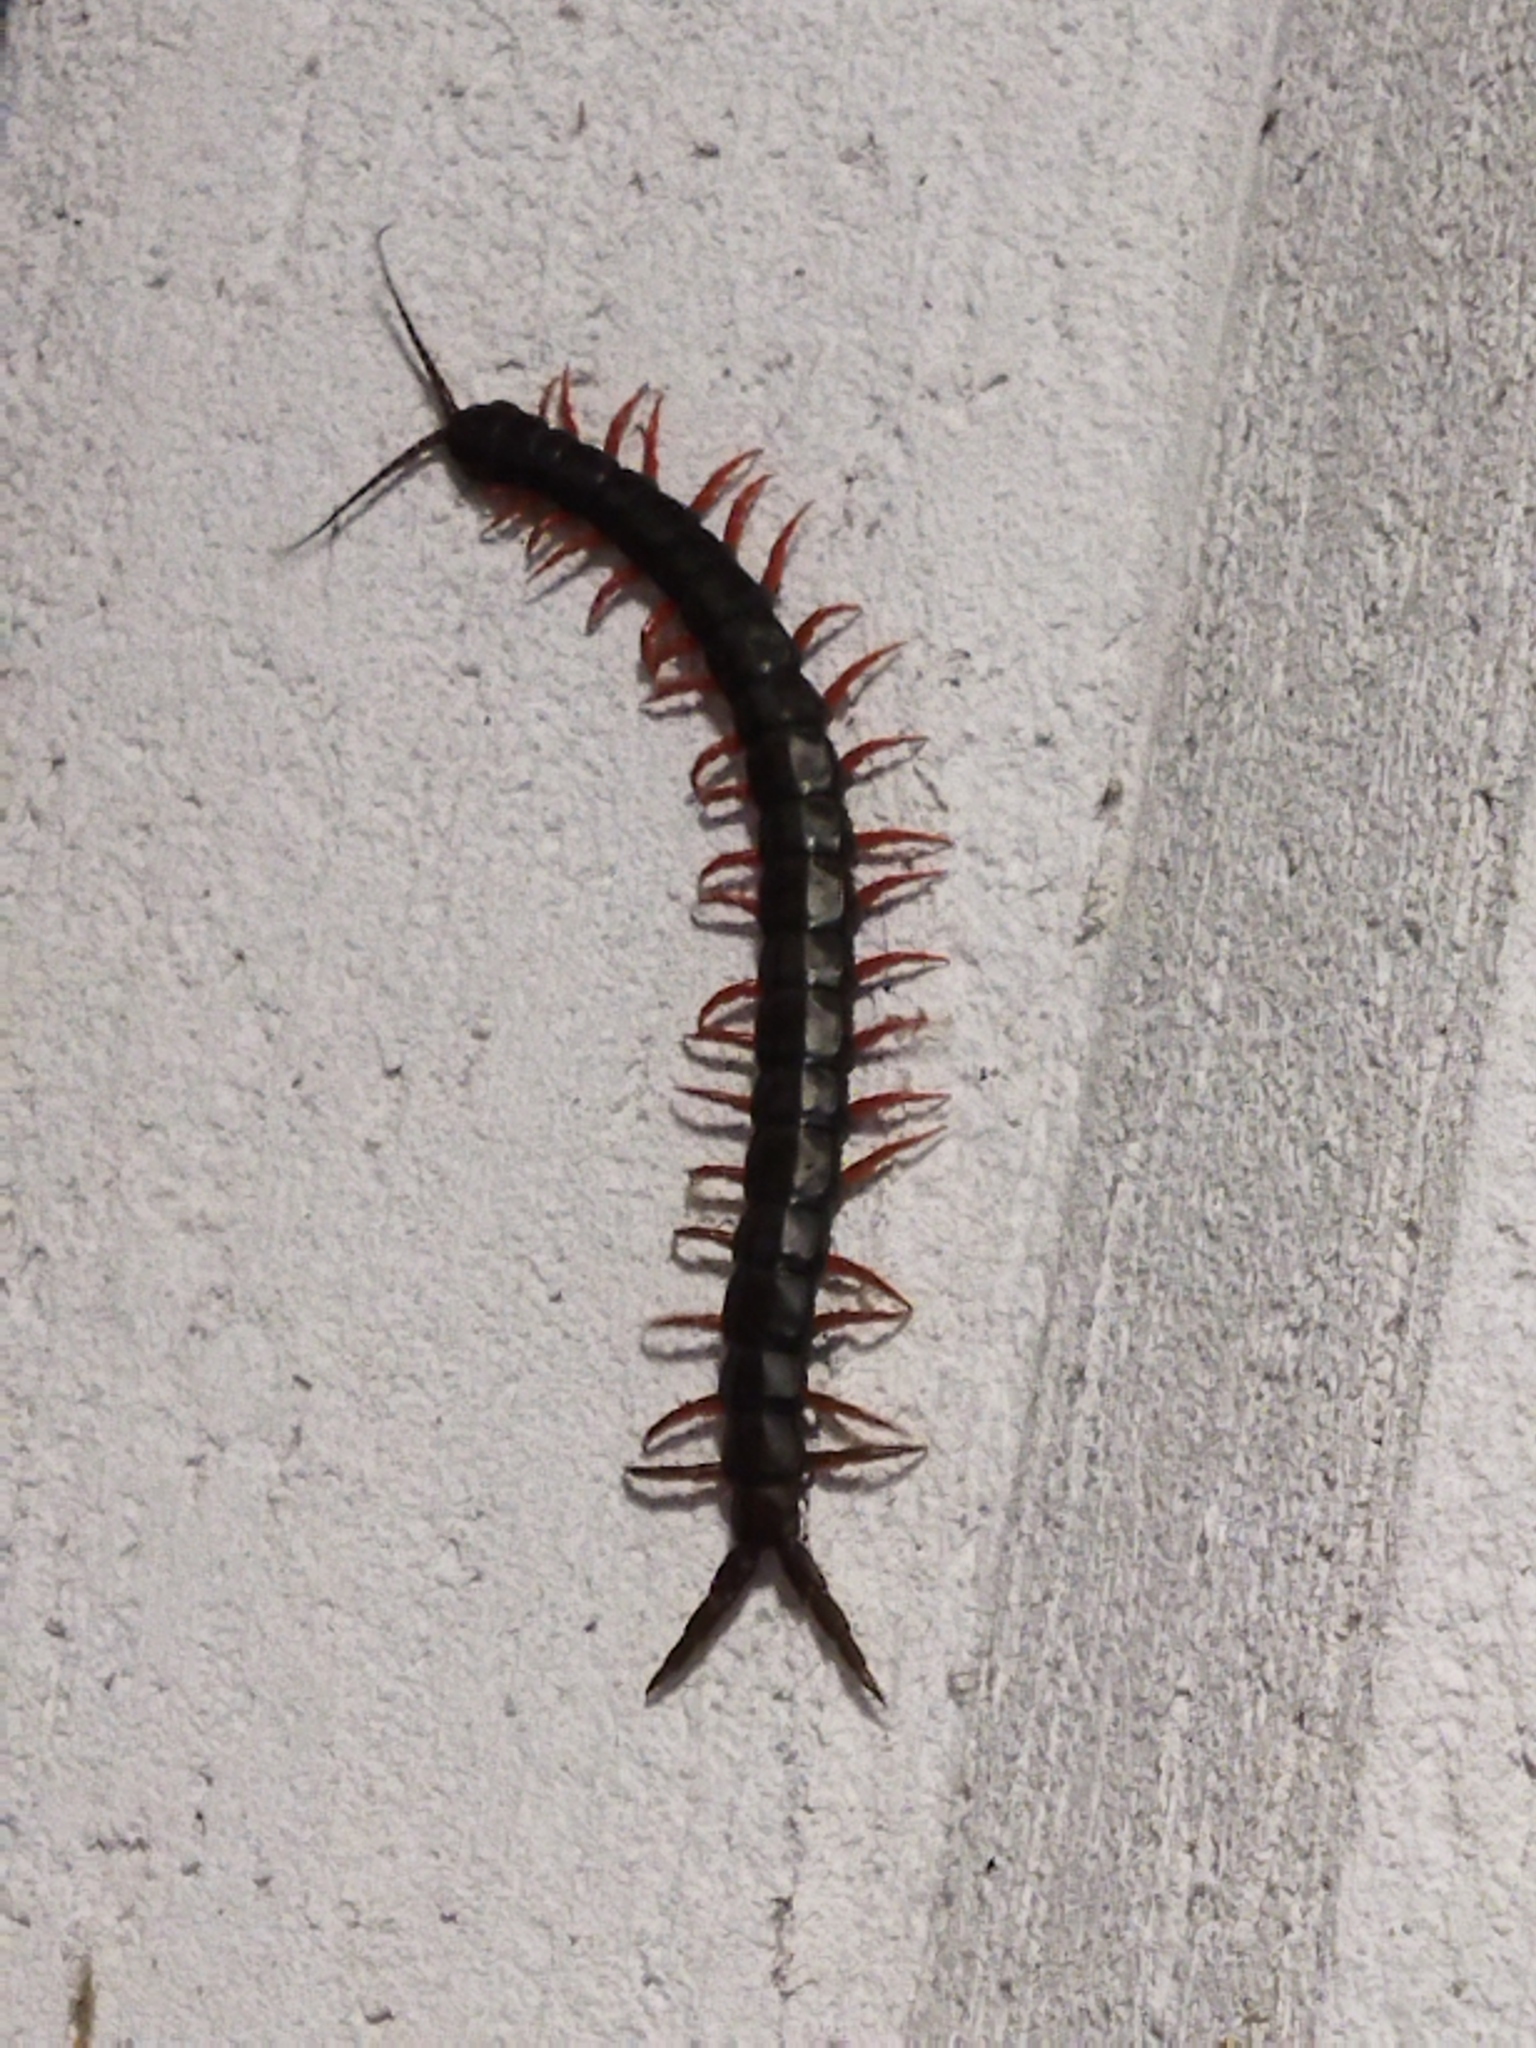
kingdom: Animalia
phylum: Arthropoda
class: Chilopoda
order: Scolopendromorpha
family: Scolopendridae
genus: Scolopendra
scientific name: Scolopendra cingulata
